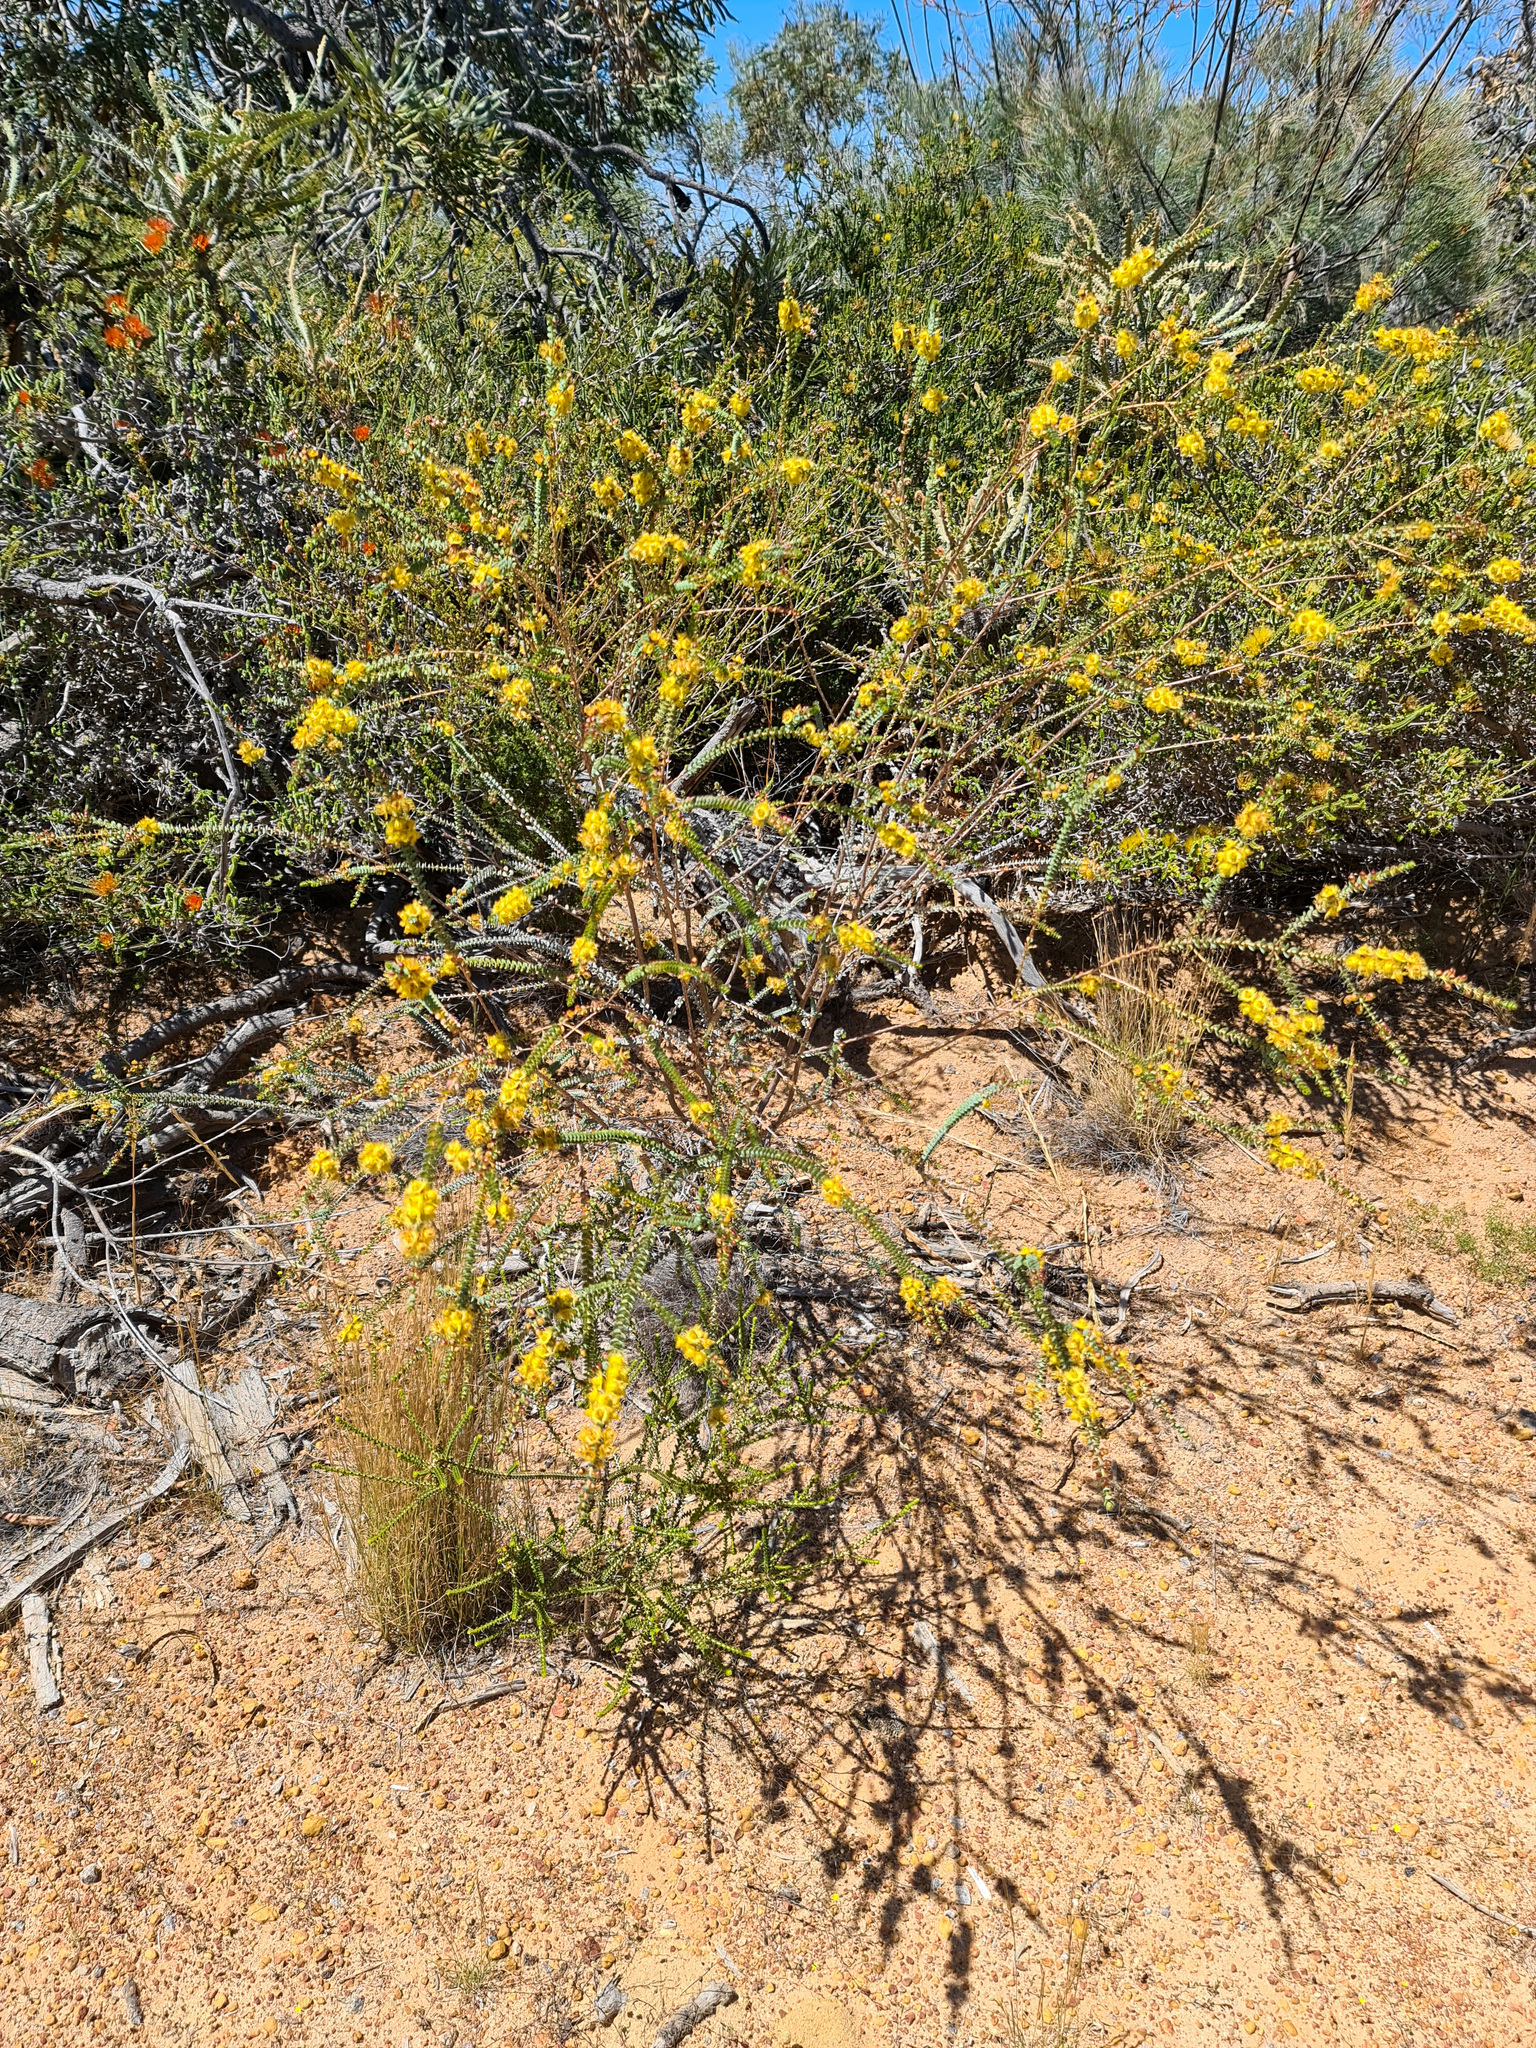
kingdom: Plantae
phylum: Tracheophyta
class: Magnoliopsida
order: Myrtales
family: Myrtaceae
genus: Verticordia
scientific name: Verticordia chrysostachys
